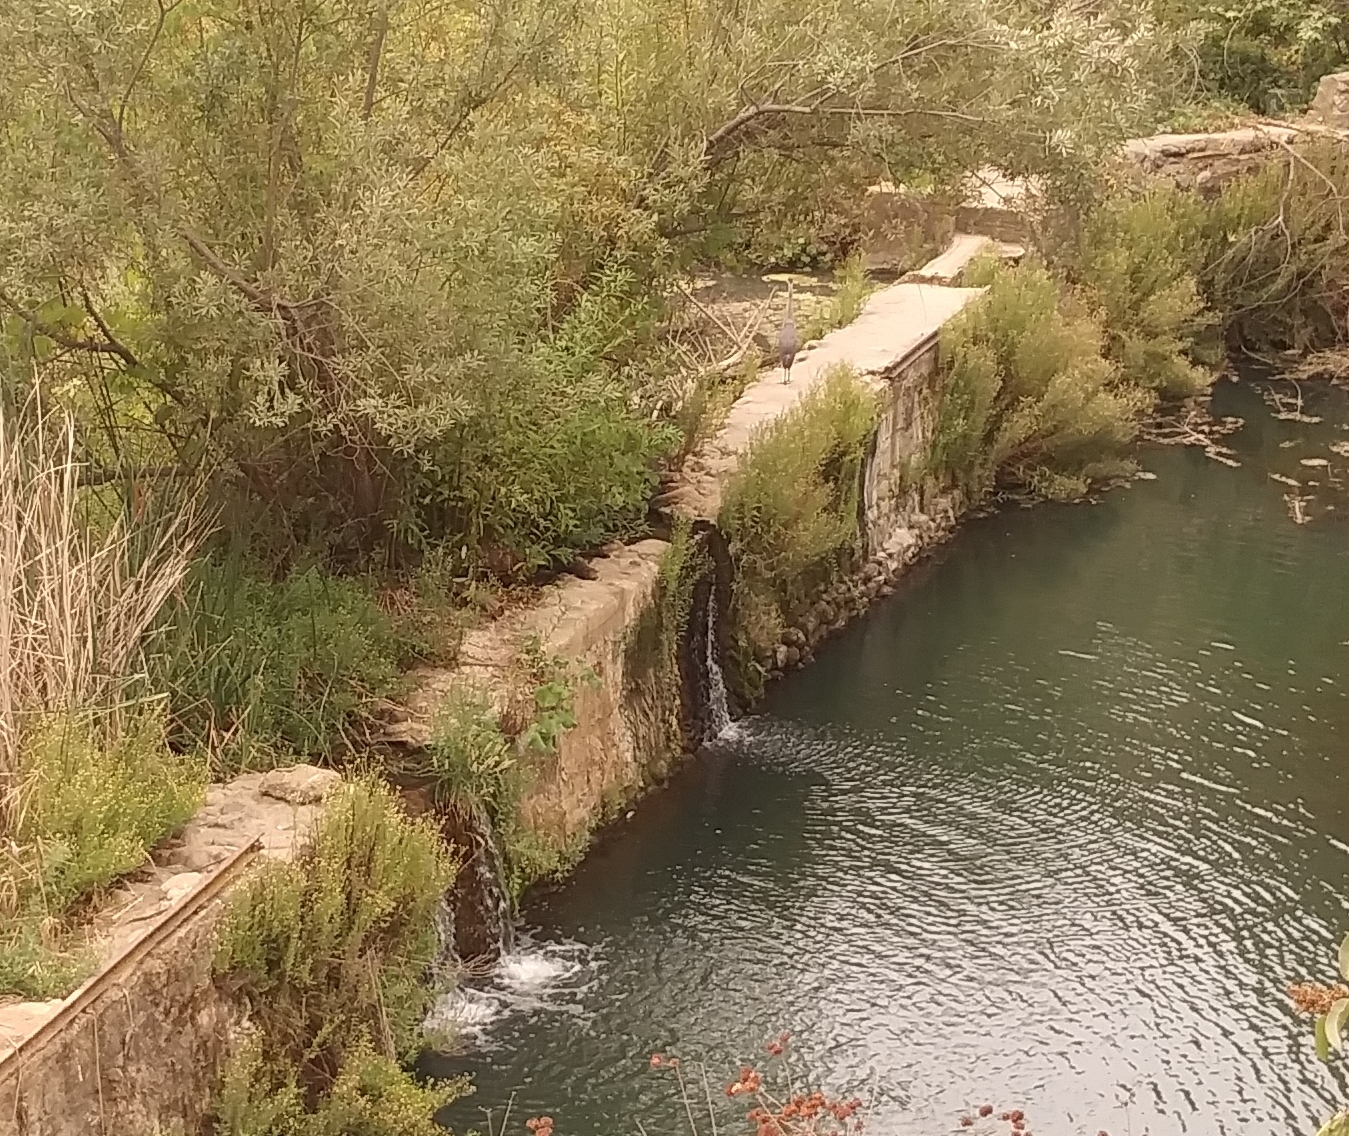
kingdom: Animalia
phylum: Chordata
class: Aves
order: Pelecaniformes
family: Ardeidae
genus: Ardea
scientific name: Ardea herodias
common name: Great blue heron
